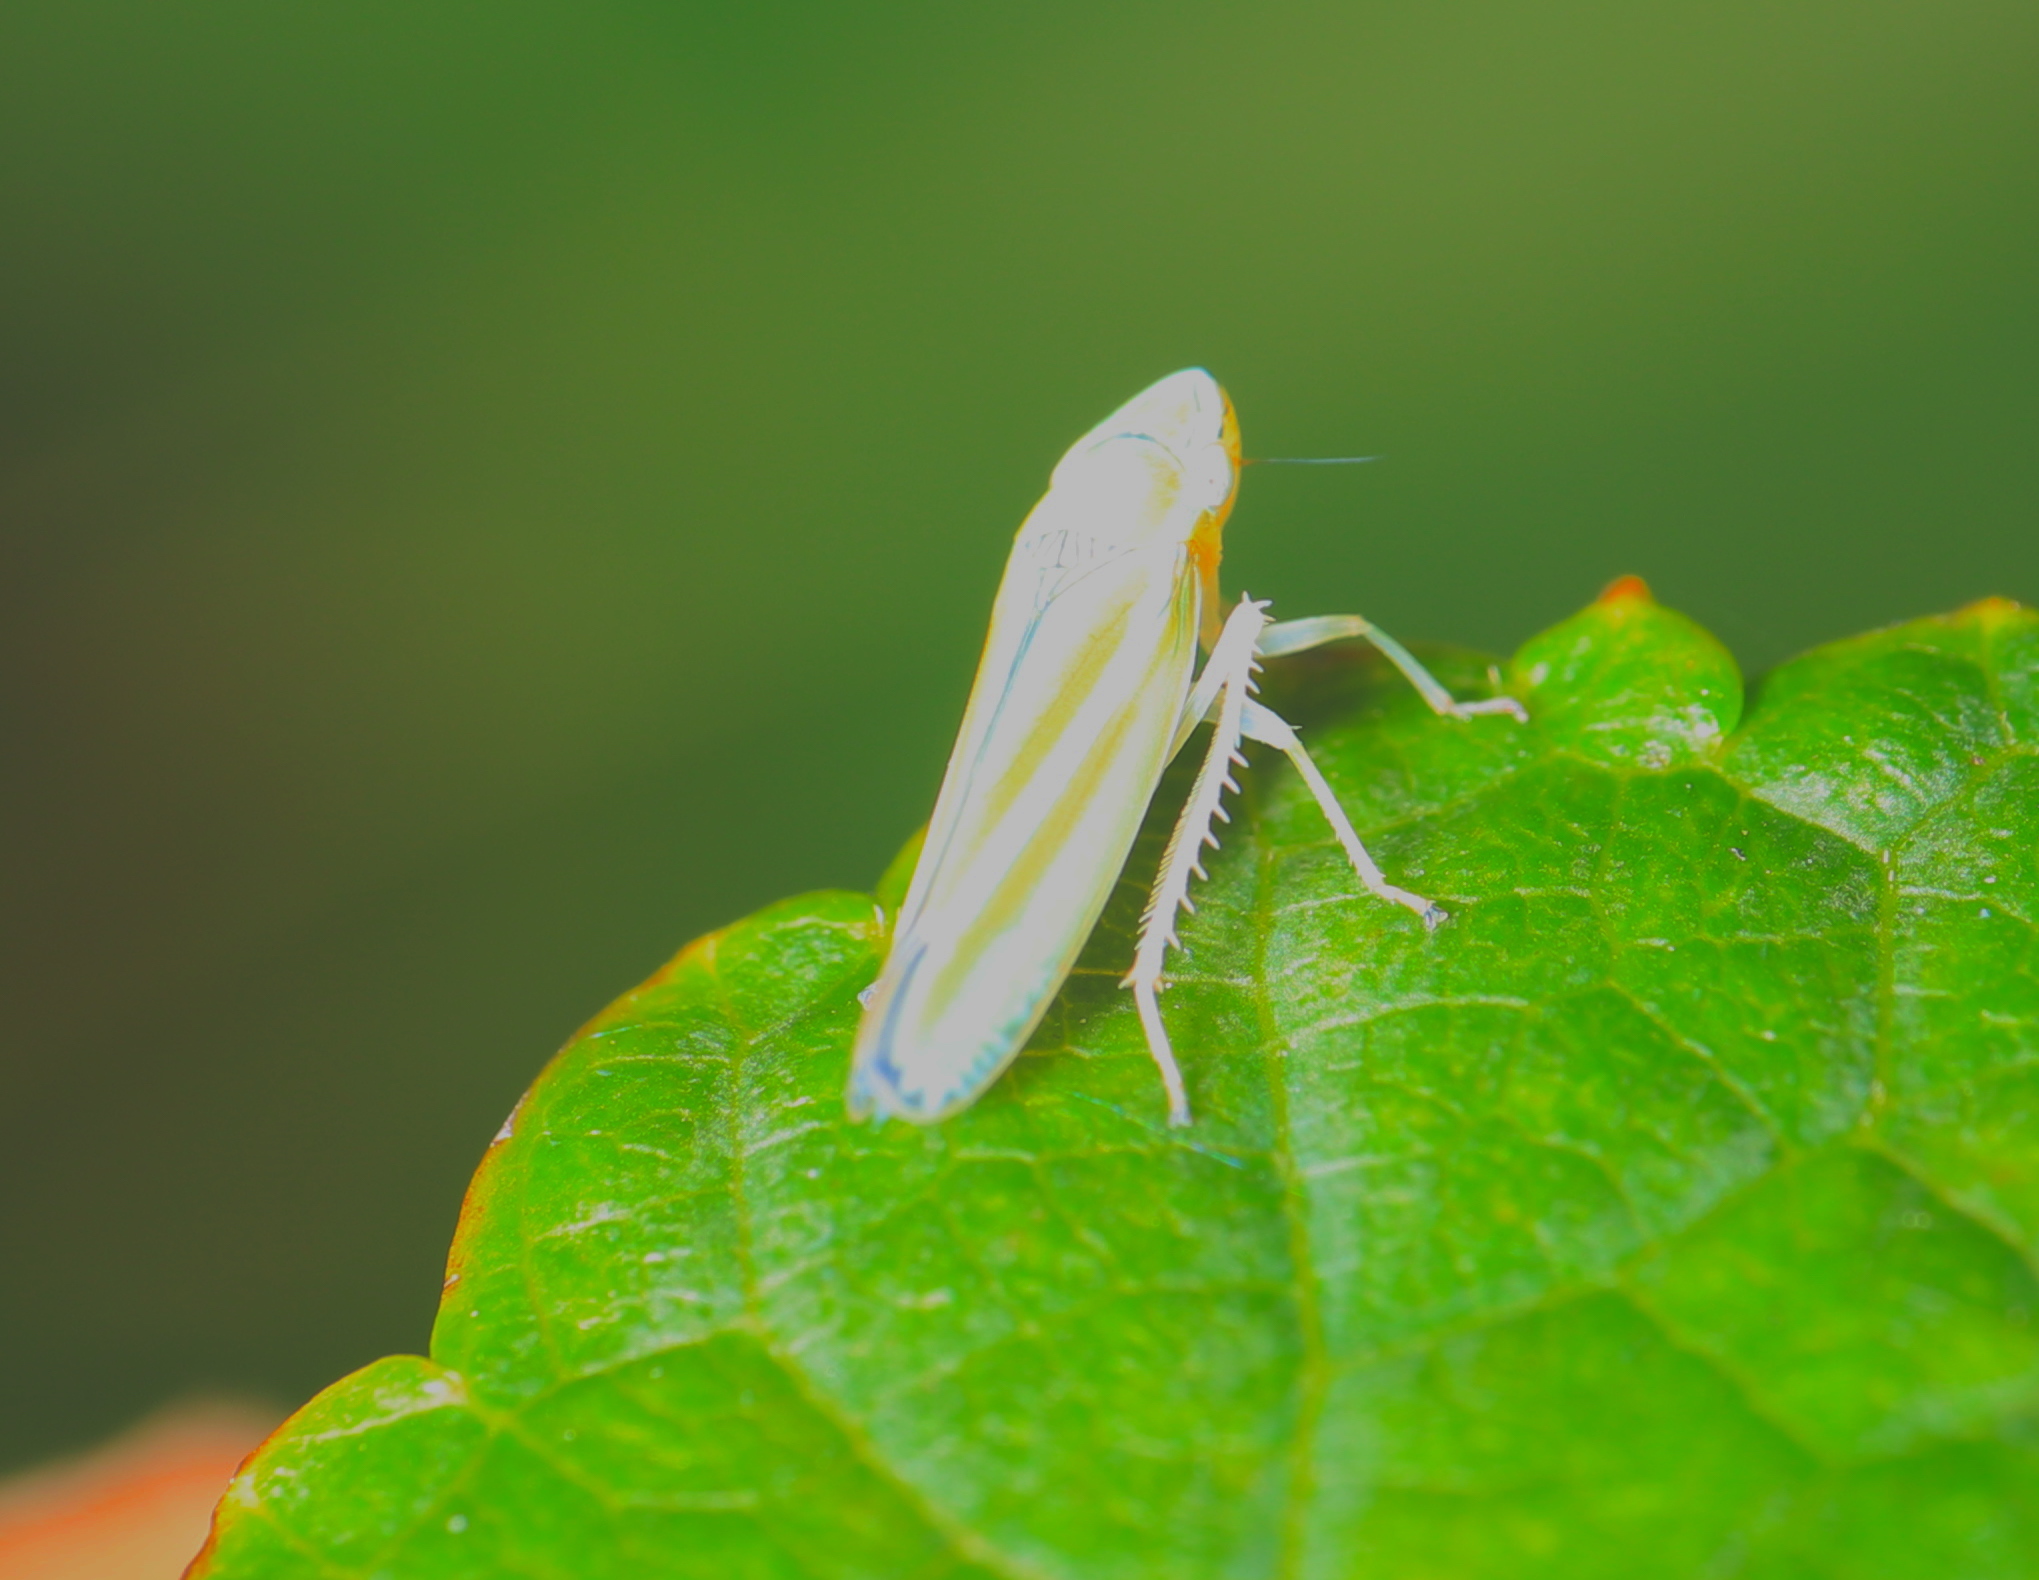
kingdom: Animalia
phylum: Arthropoda
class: Insecta
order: Hemiptera
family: Cicadellidae
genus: Graphocephala
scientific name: Graphocephala versuta
